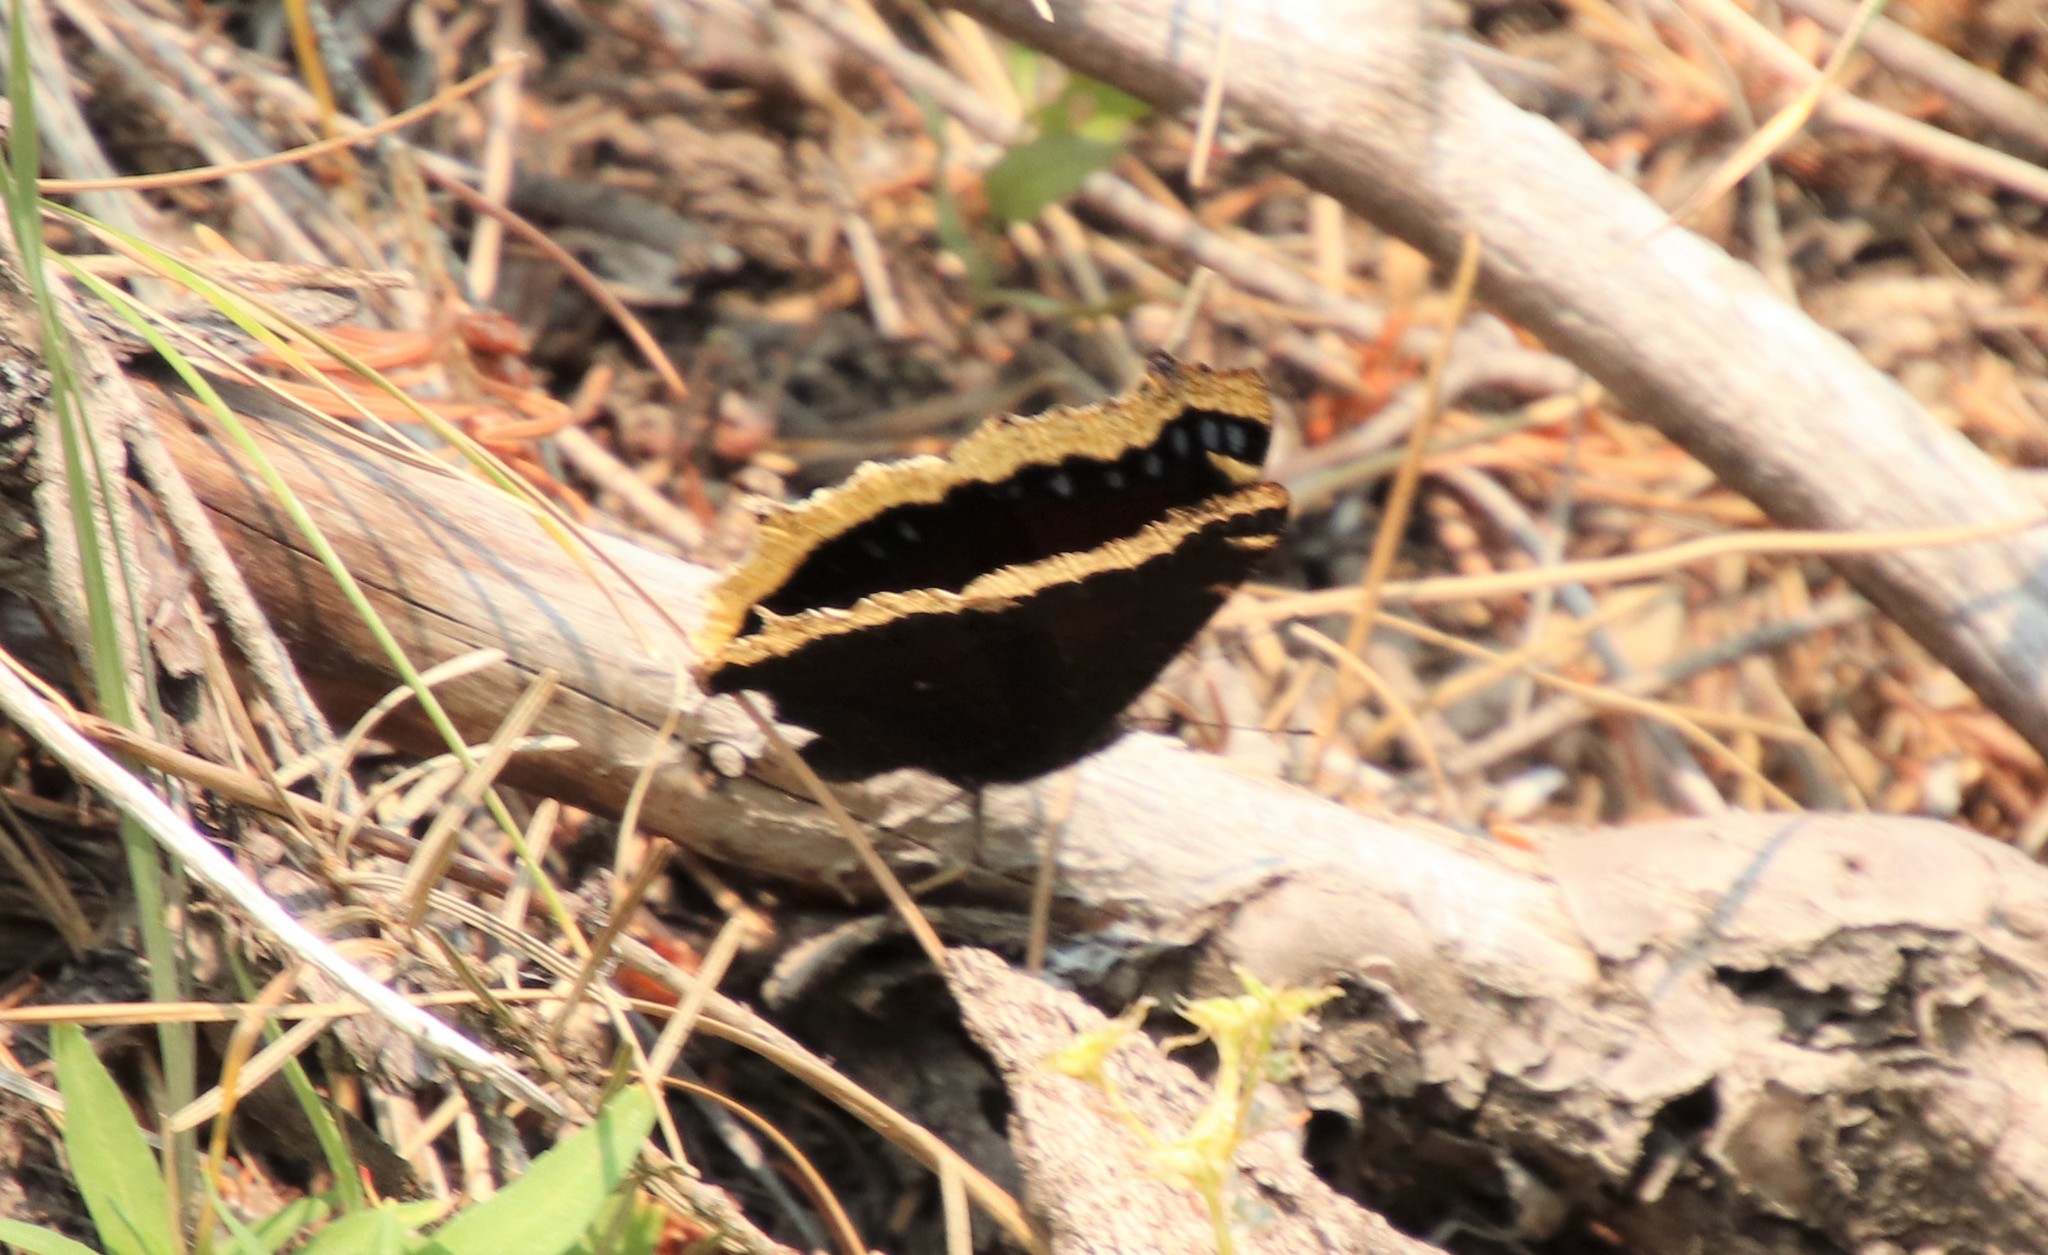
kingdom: Animalia
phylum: Arthropoda
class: Insecta
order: Lepidoptera
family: Nymphalidae
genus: Nymphalis
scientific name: Nymphalis antiopa
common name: Camberwell beauty
